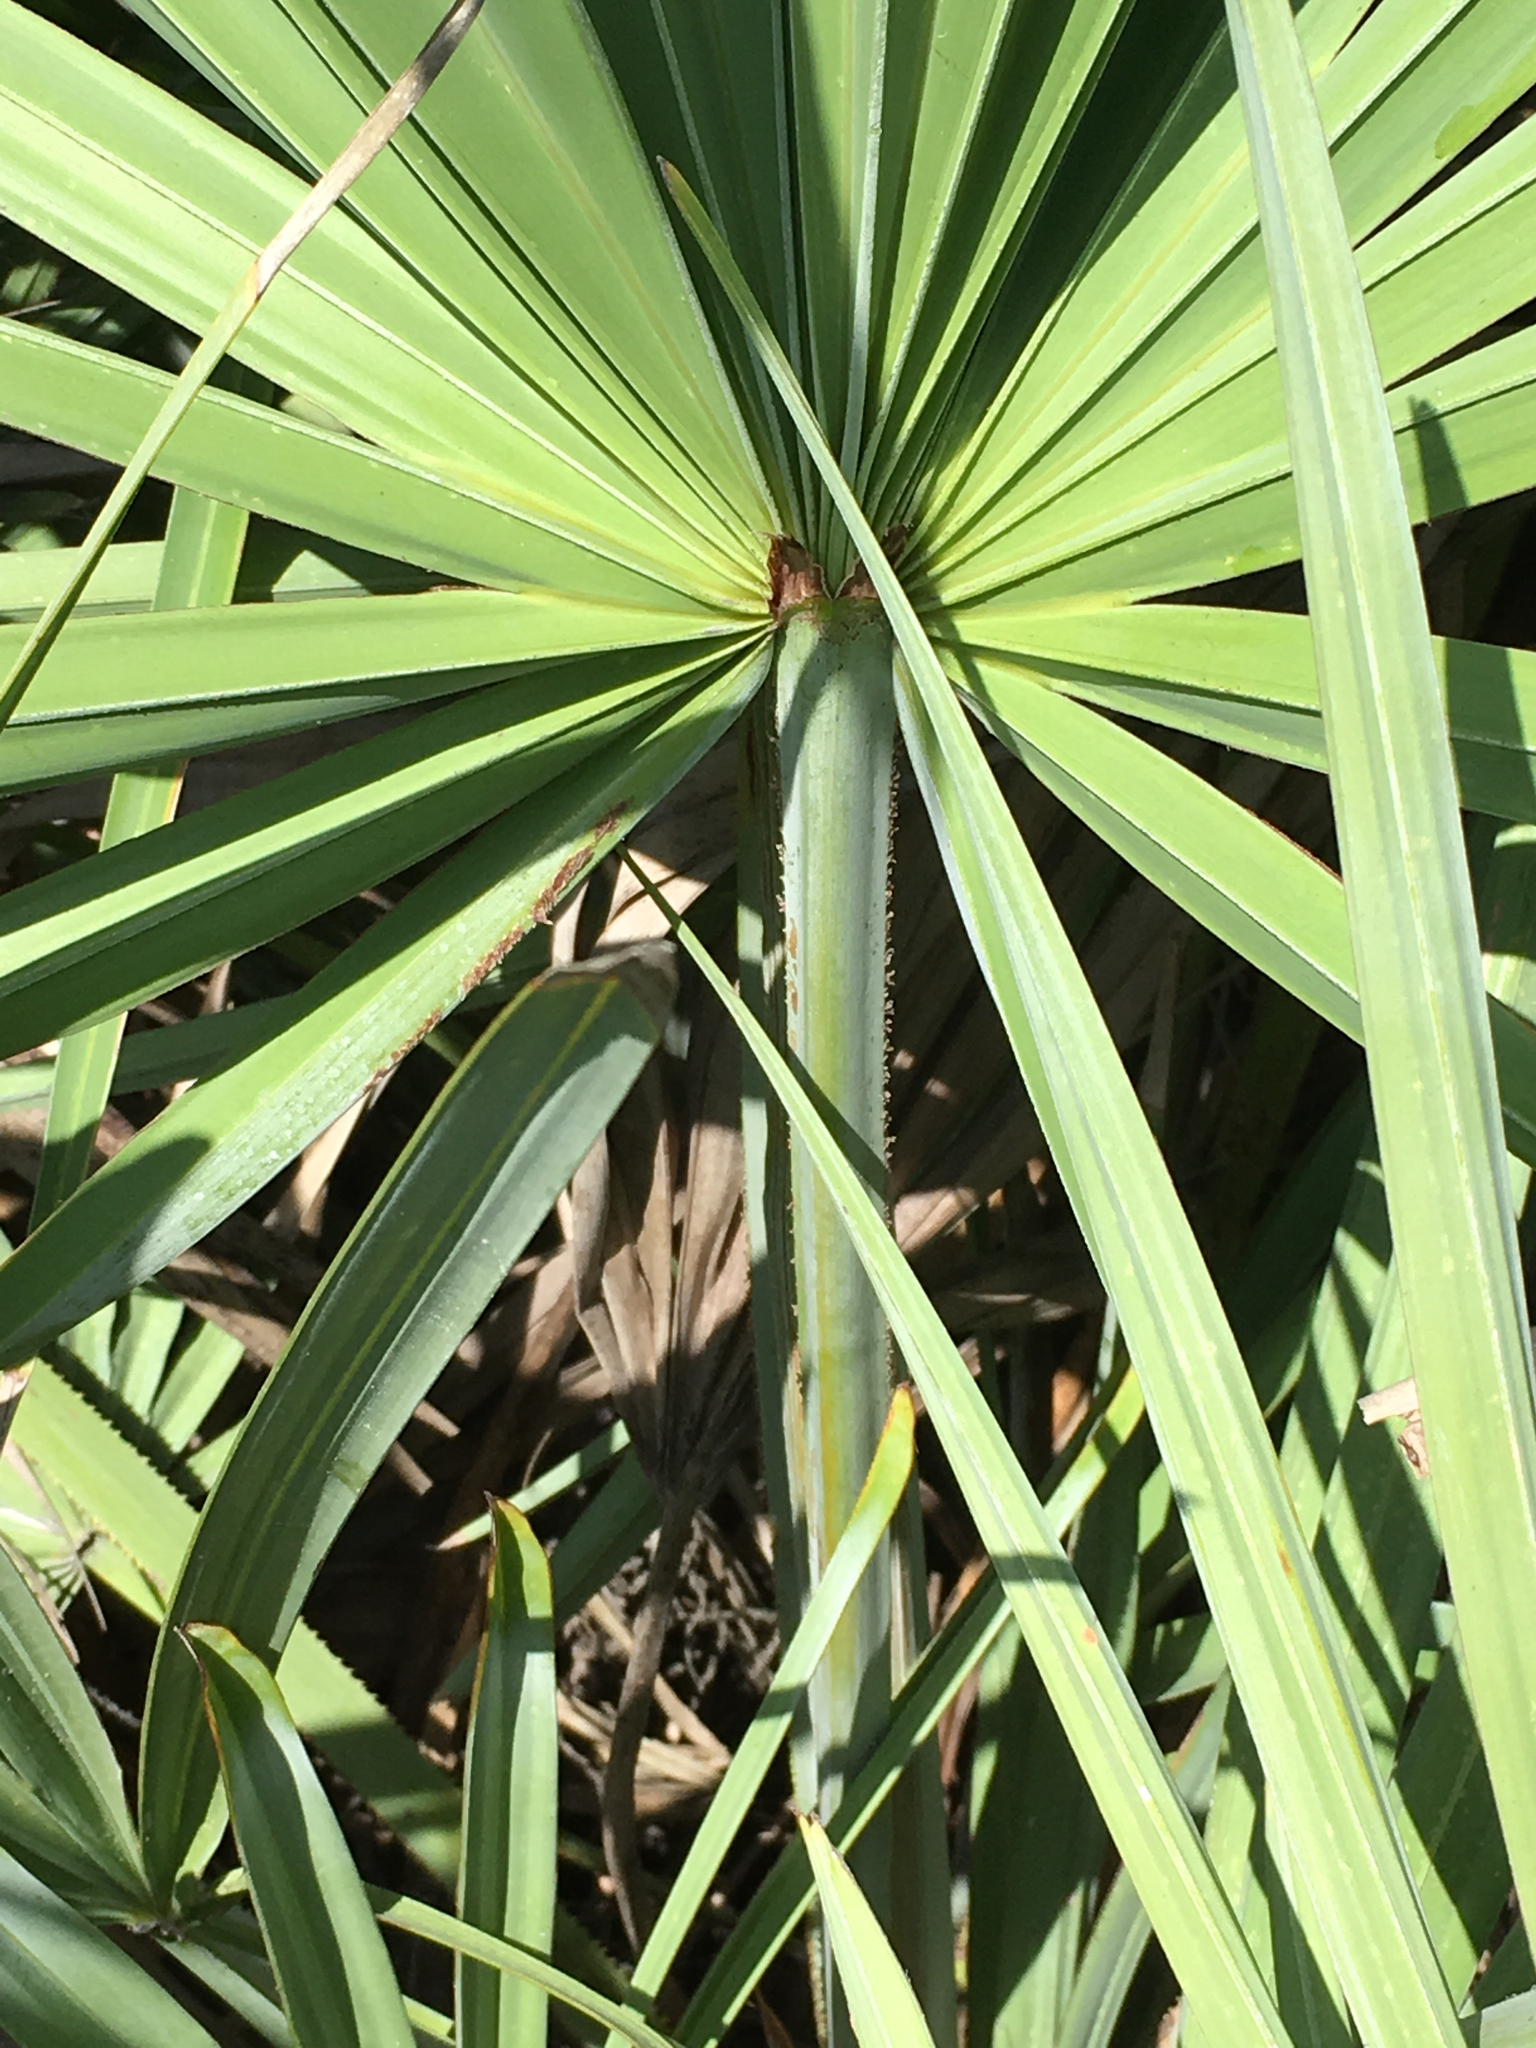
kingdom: Plantae
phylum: Tracheophyta
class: Liliopsida
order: Arecales
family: Arecaceae
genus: Serenoa
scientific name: Serenoa repens
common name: Saw-palmetto
